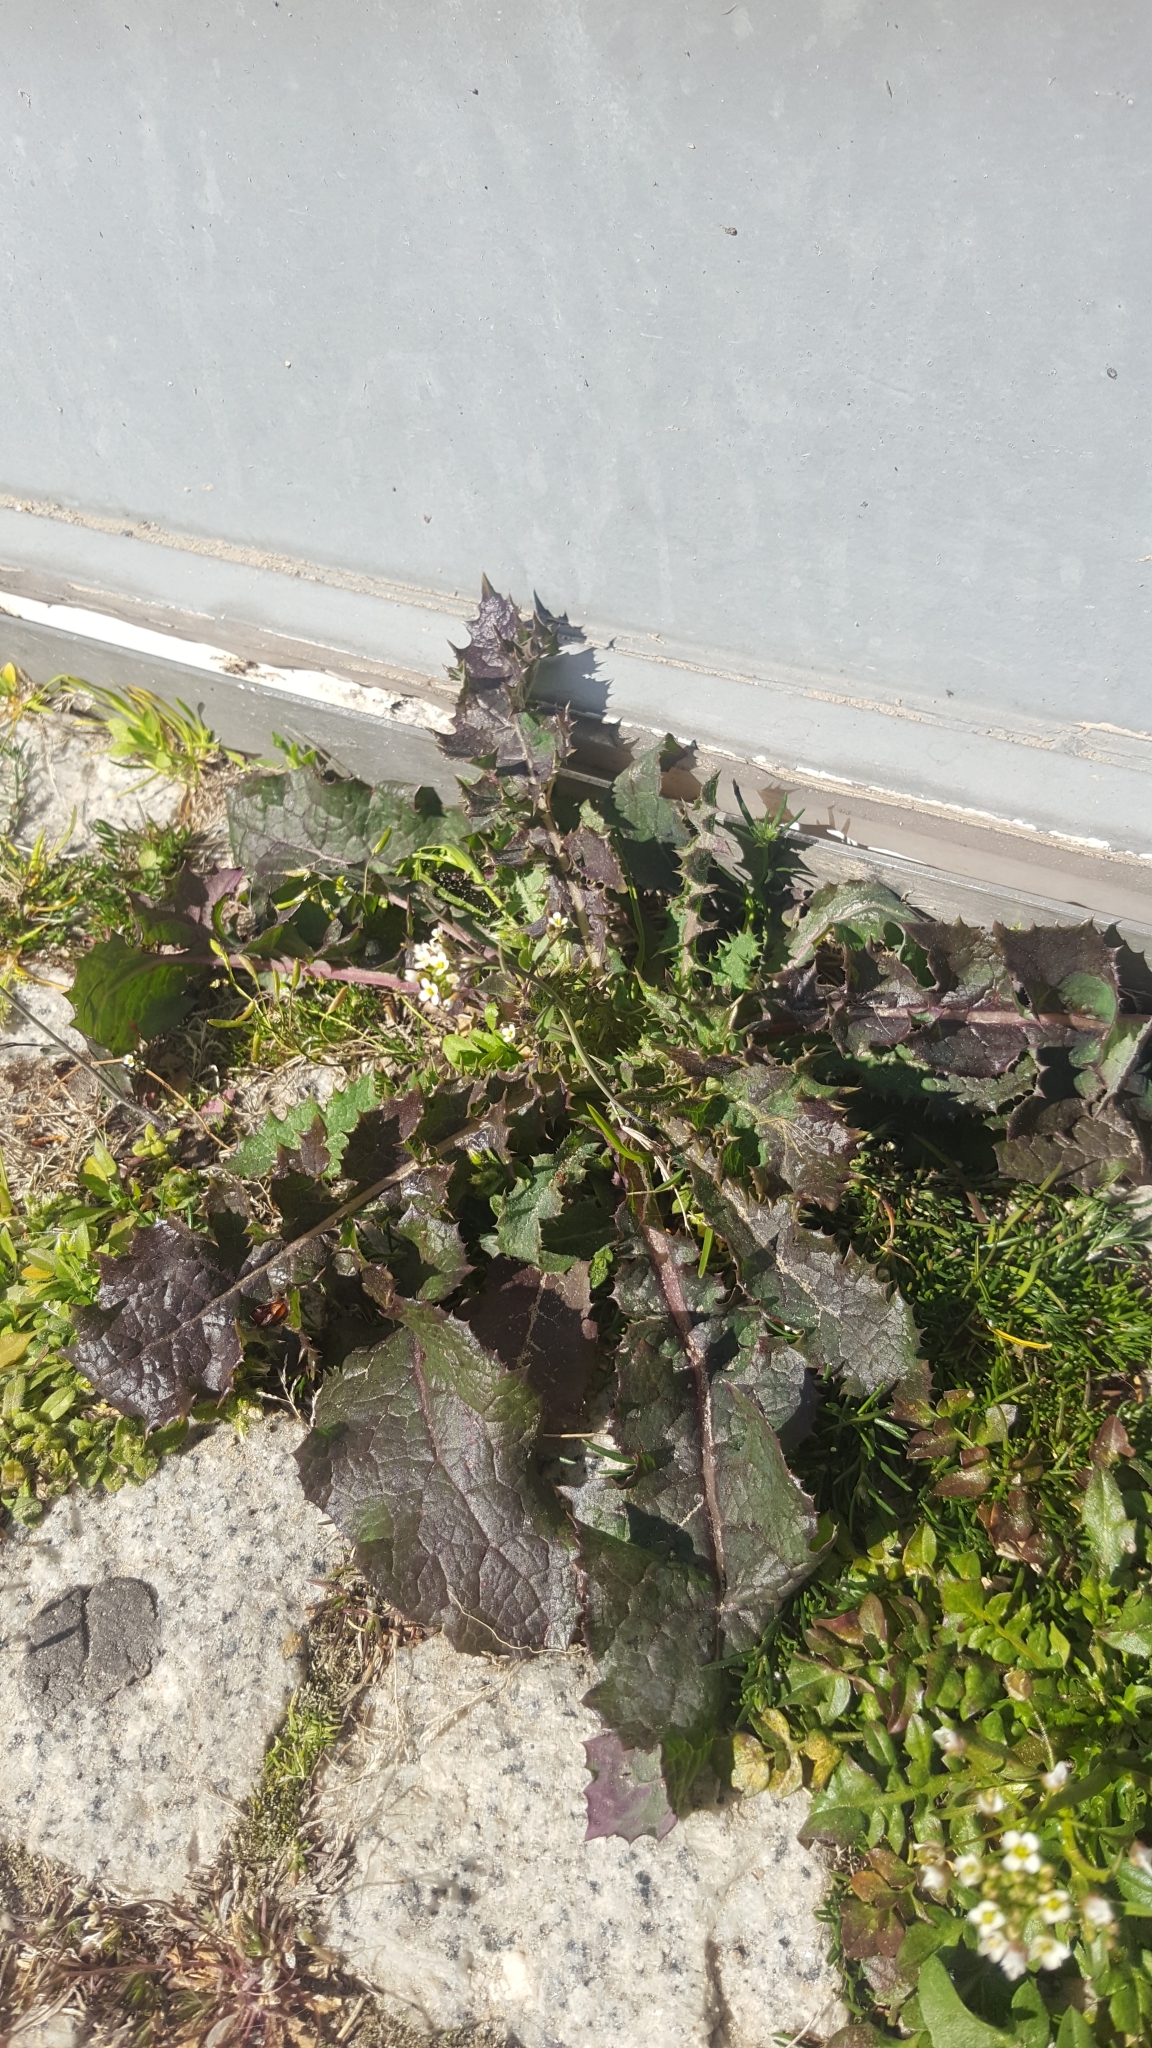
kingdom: Plantae
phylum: Tracheophyta
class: Magnoliopsida
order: Asterales
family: Asteraceae
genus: Sonchus
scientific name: Sonchus oleraceus
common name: Common sowthistle
